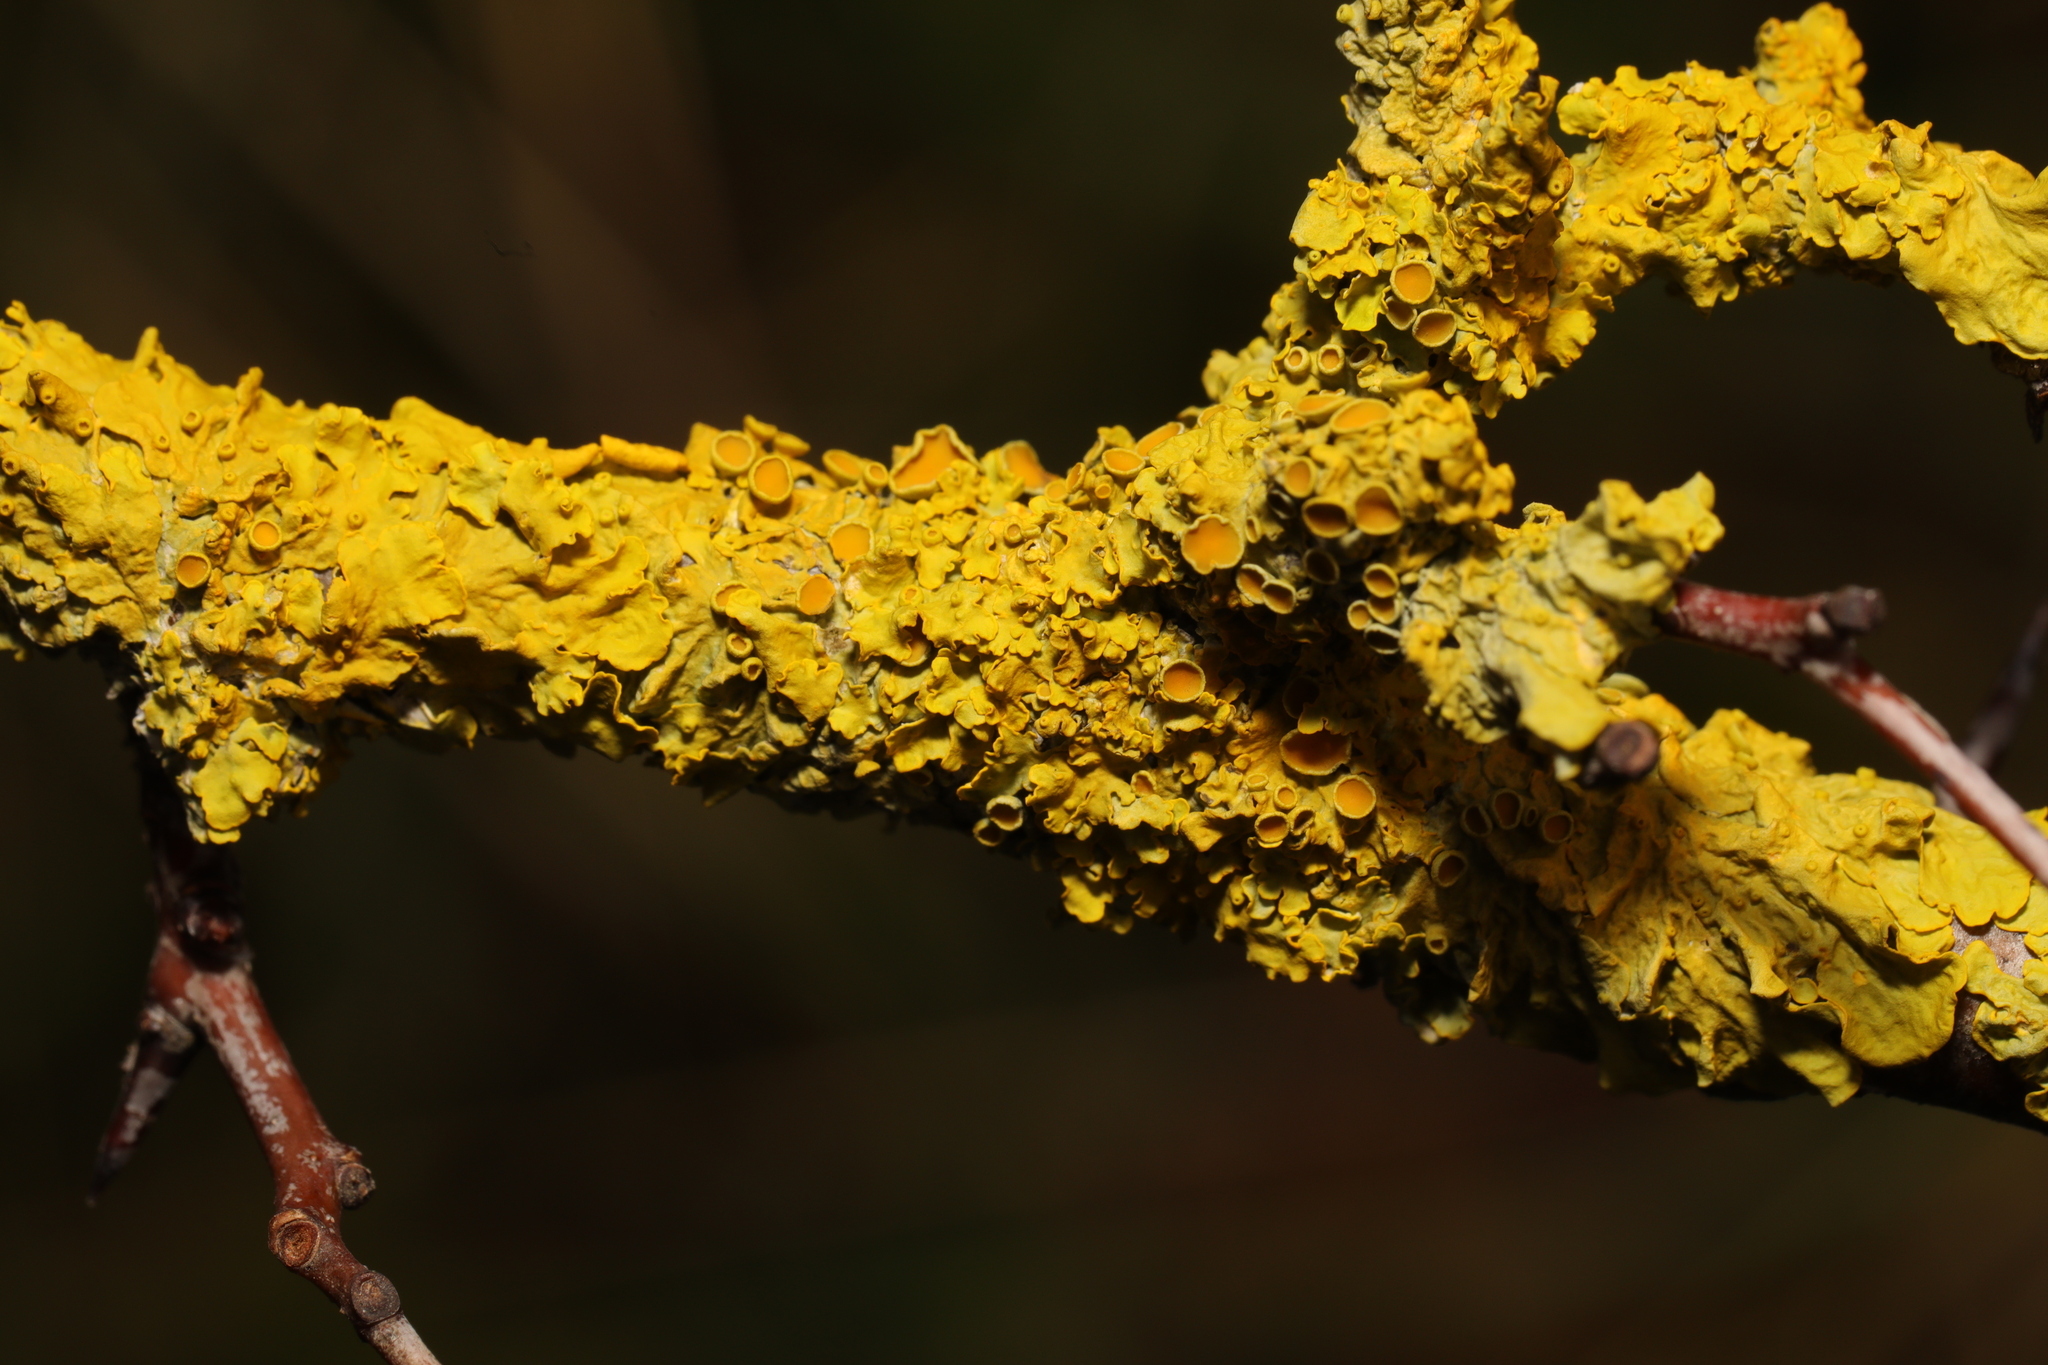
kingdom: Fungi
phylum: Ascomycota
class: Lecanoromycetes
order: Teloschistales
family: Teloschistaceae
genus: Xanthoria
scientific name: Xanthoria parietina
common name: Common orange lichen
